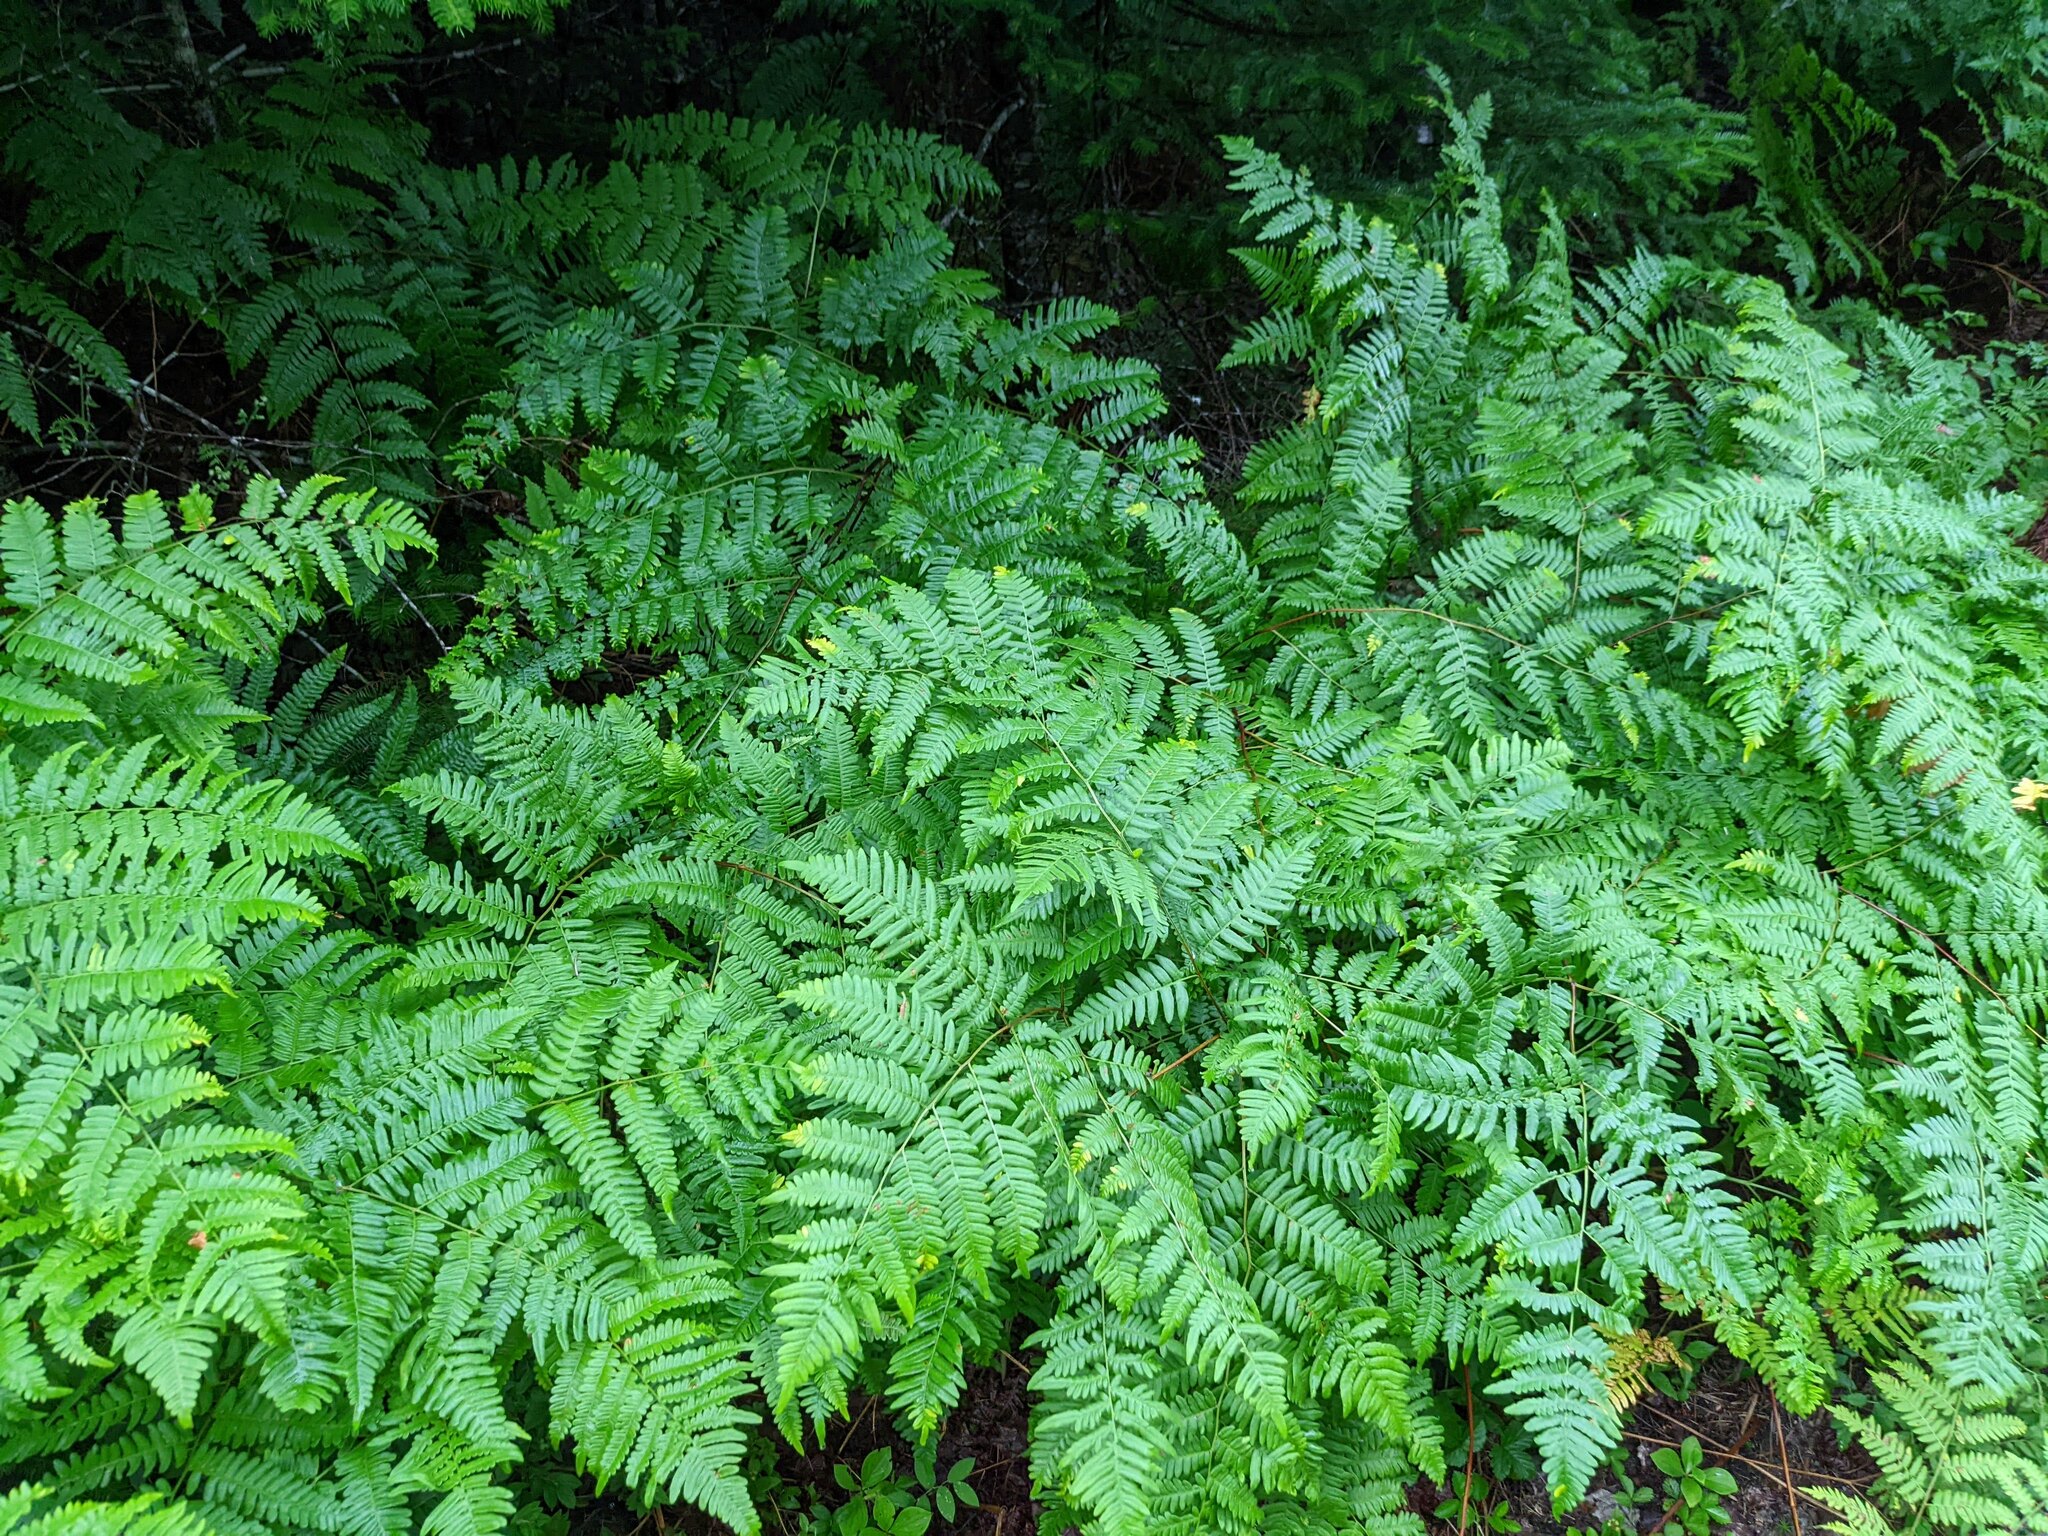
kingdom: Plantae
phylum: Tracheophyta
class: Polypodiopsida
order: Polypodiales
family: Dennstaedtiaceae
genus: Pteridium
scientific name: Pteridium aquilinum
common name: Bracken
